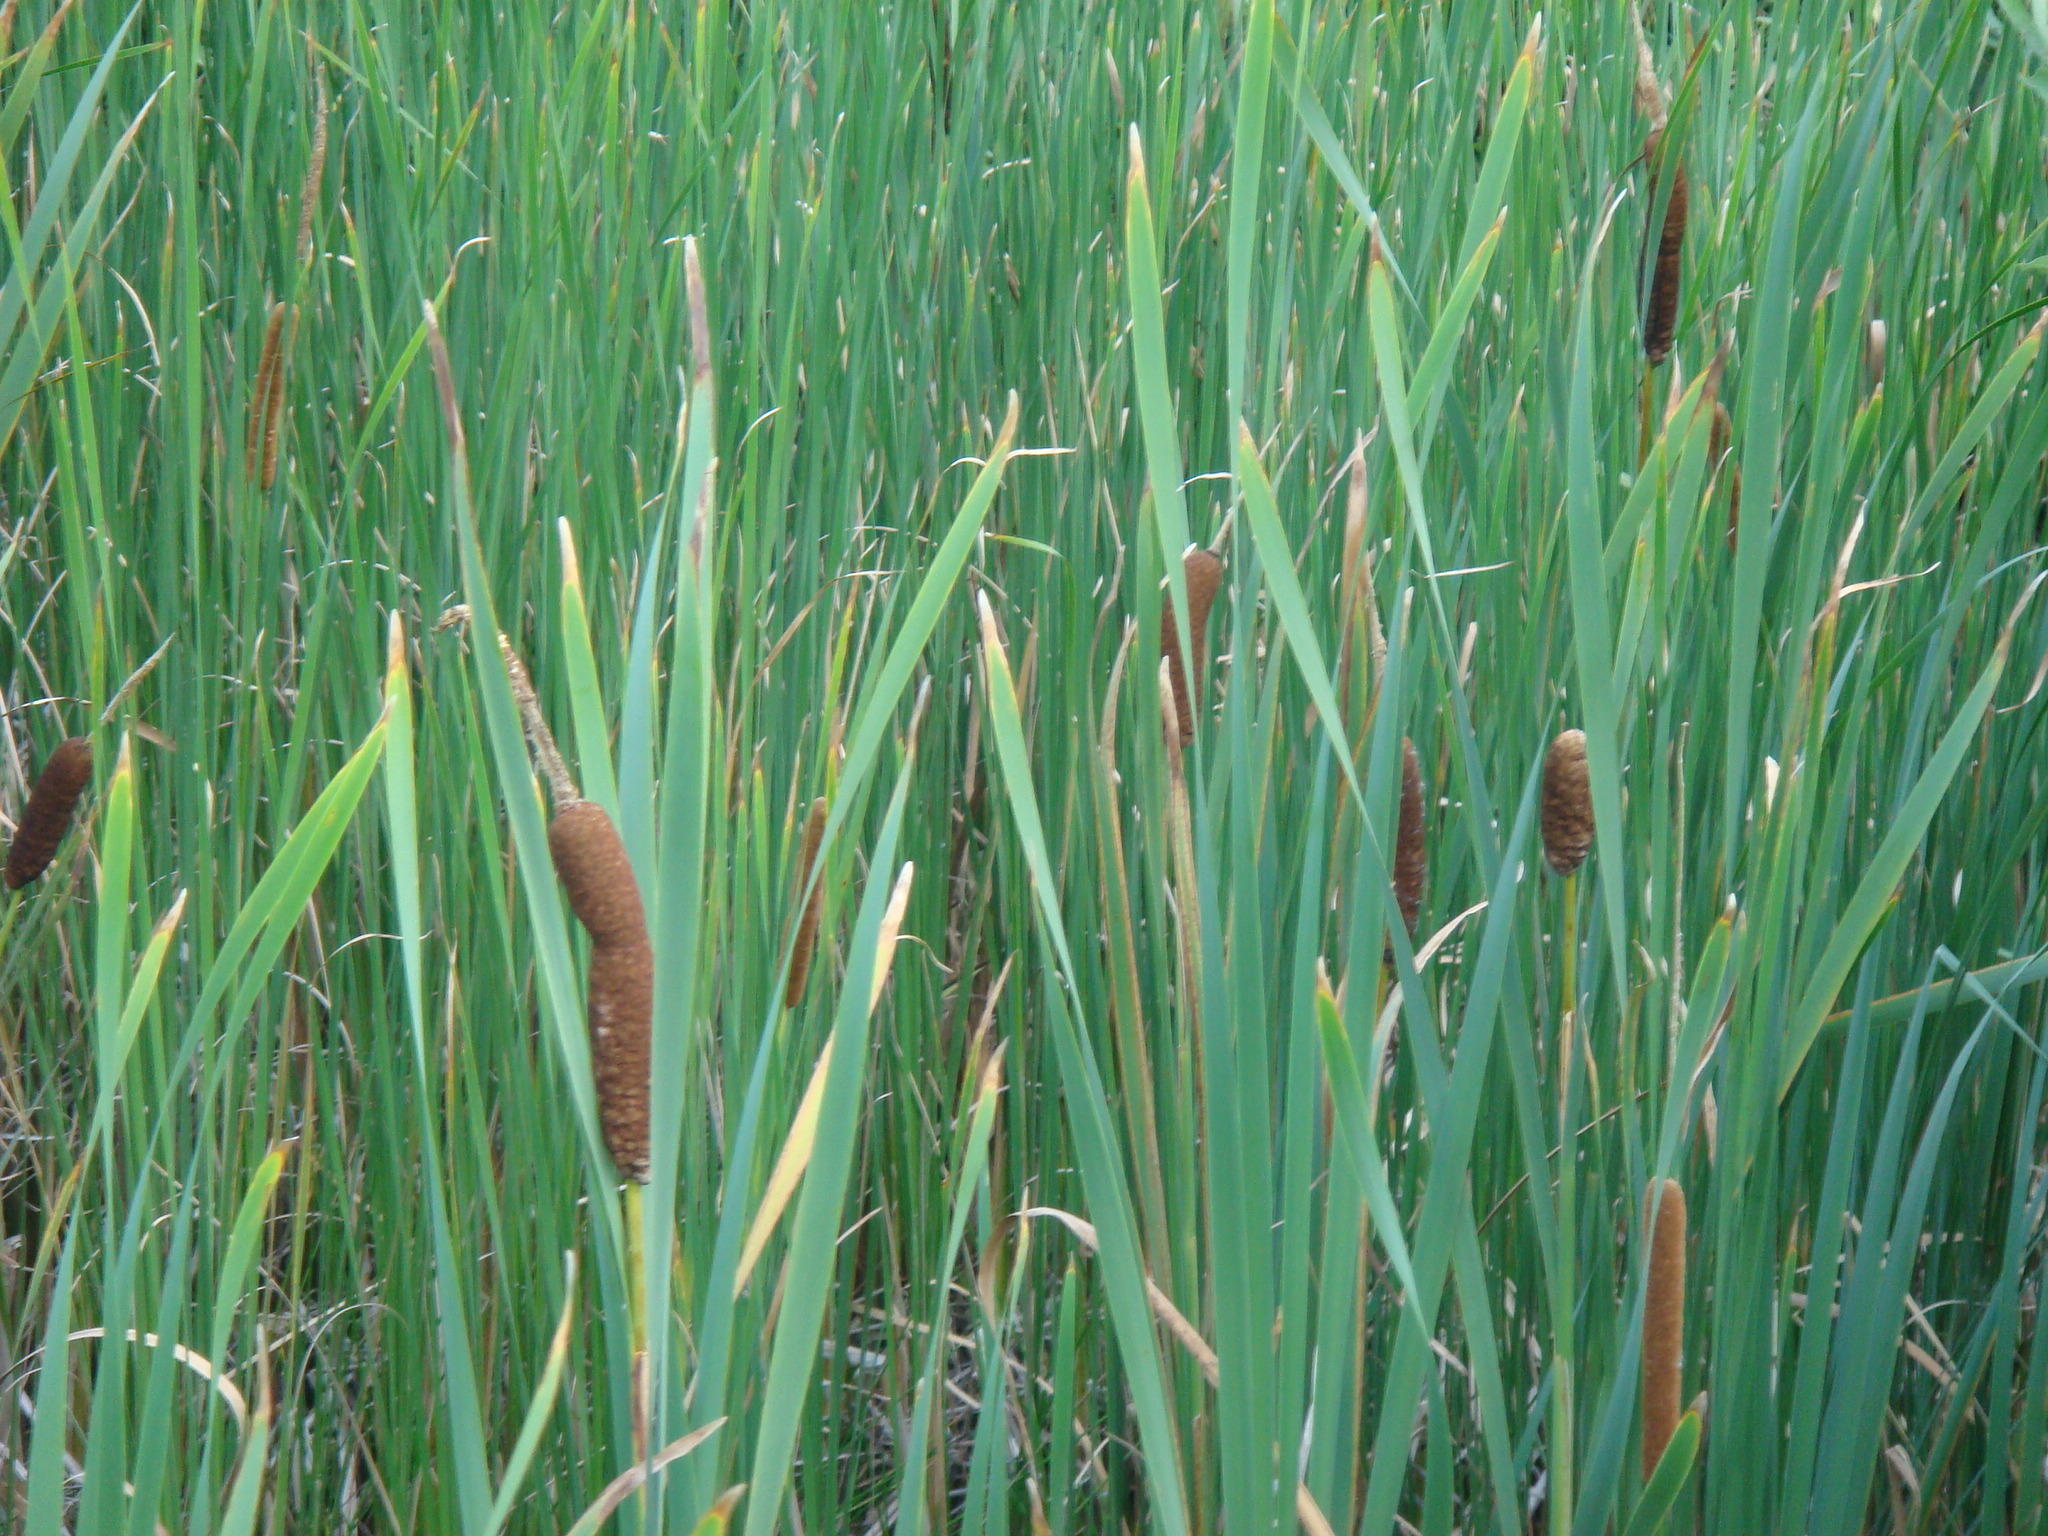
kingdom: Plantae
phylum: Tracheophyta
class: Liliopsida
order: Poales
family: Typhaceae
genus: Typha
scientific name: Typha latifolia
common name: Broadleaf cattail
